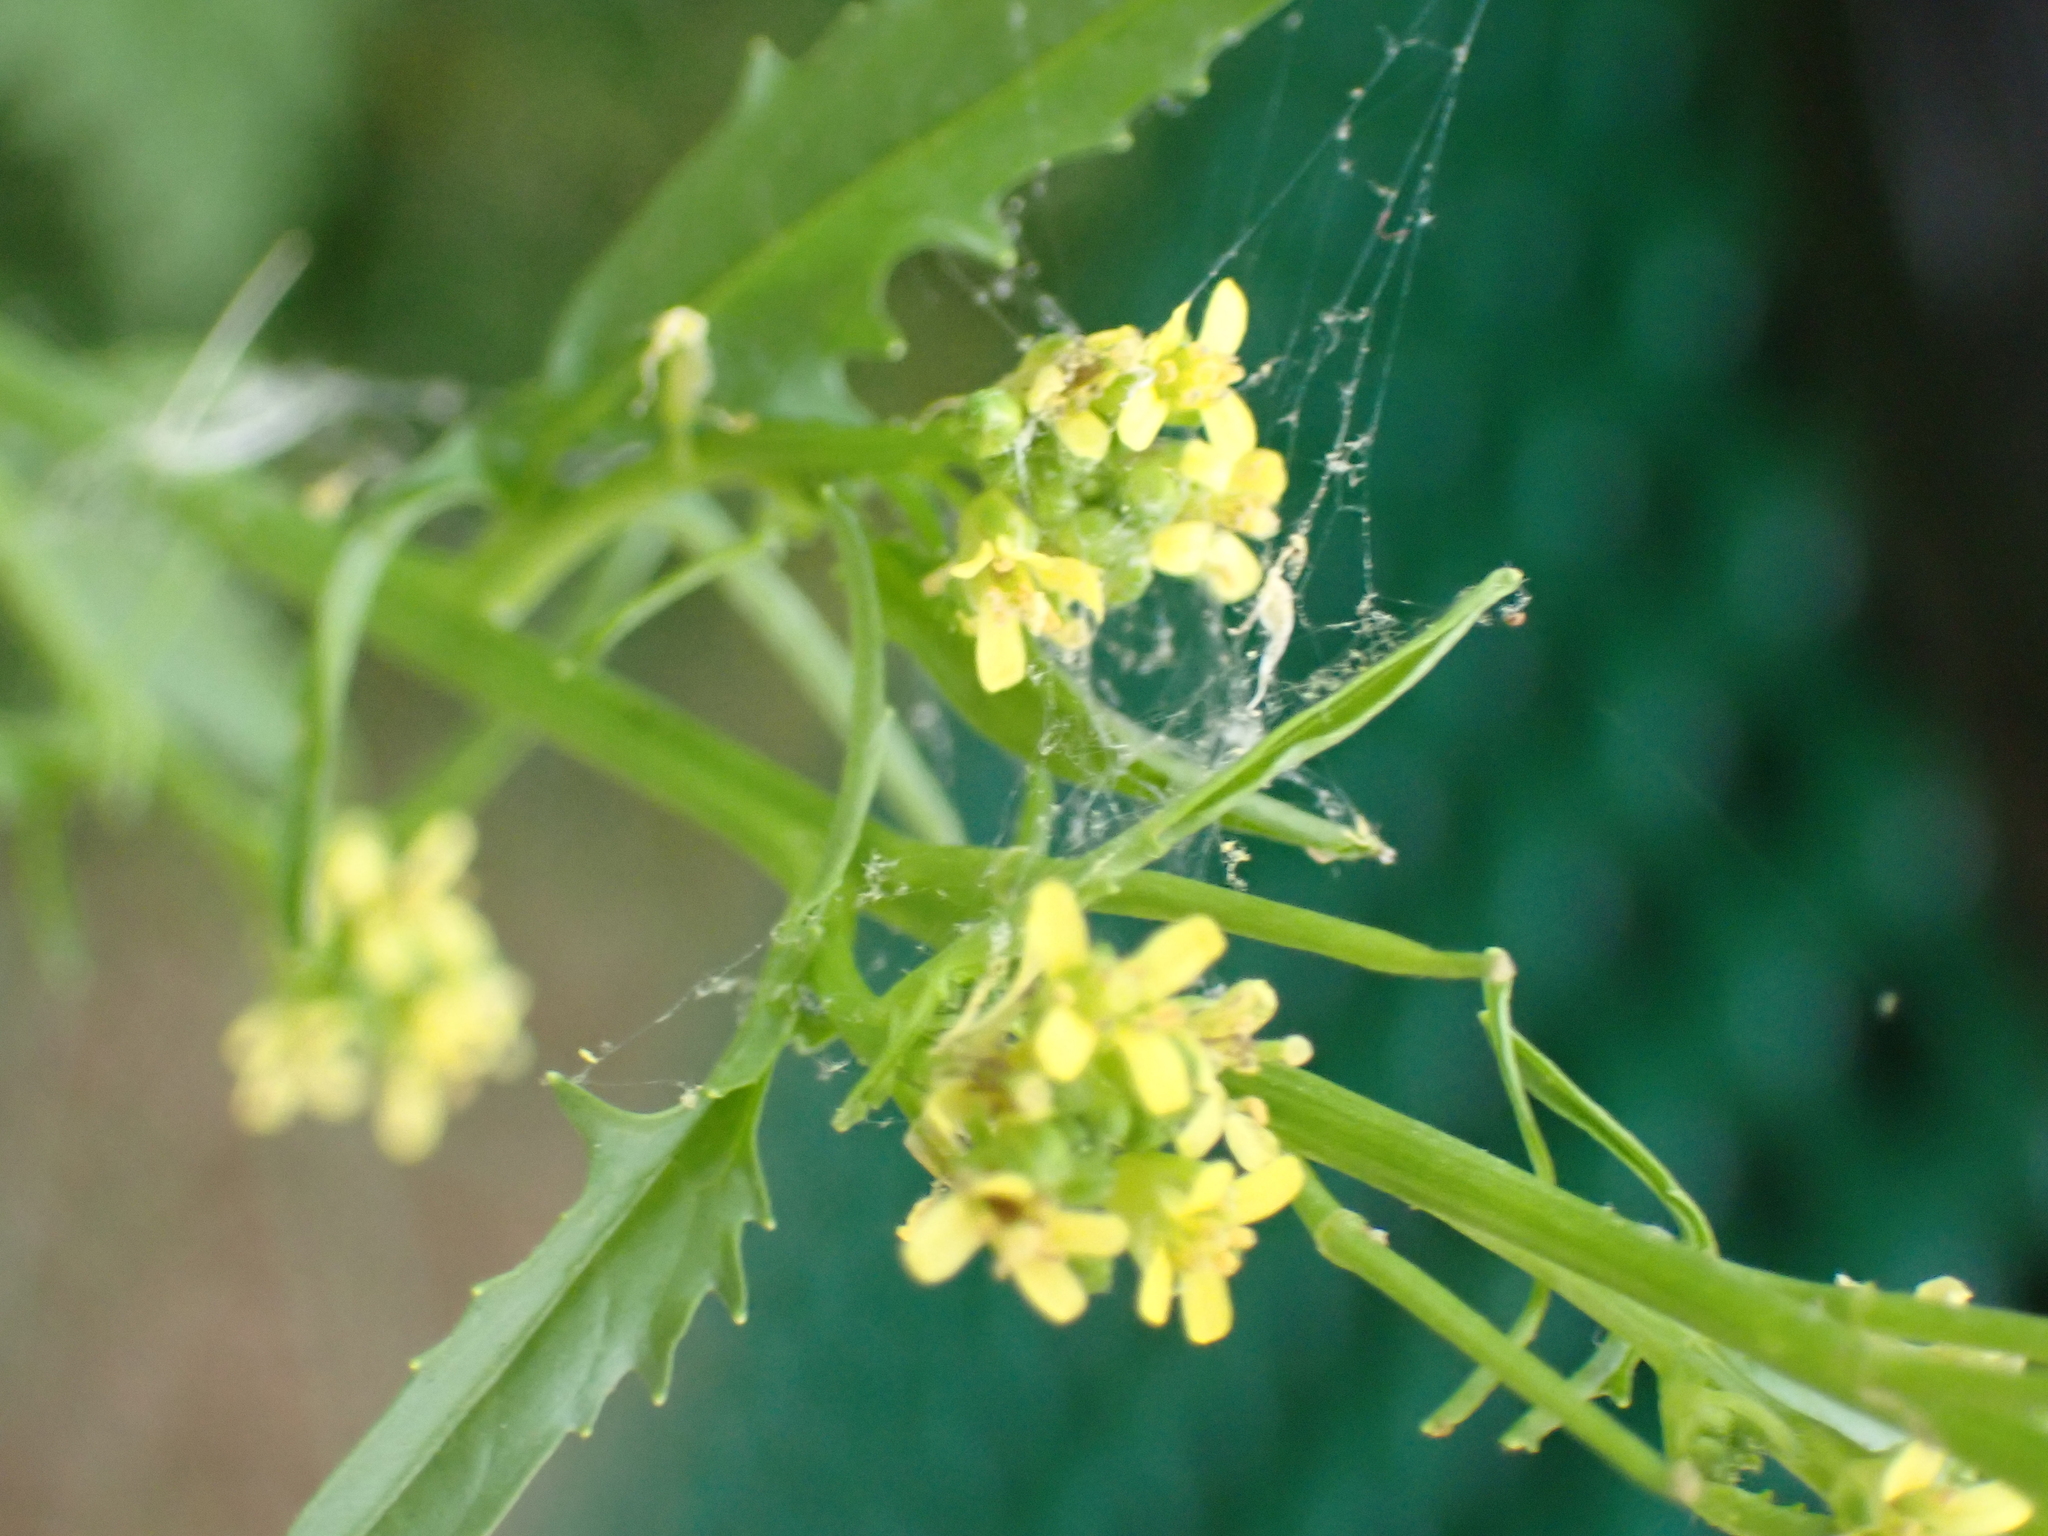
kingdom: Plantae
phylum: Tracheophyta
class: Magnoliopsida
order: Brassicales
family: Brassicaceae
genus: Sisymbrium
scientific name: Sisymbrium officinale
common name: Hedge mustard
